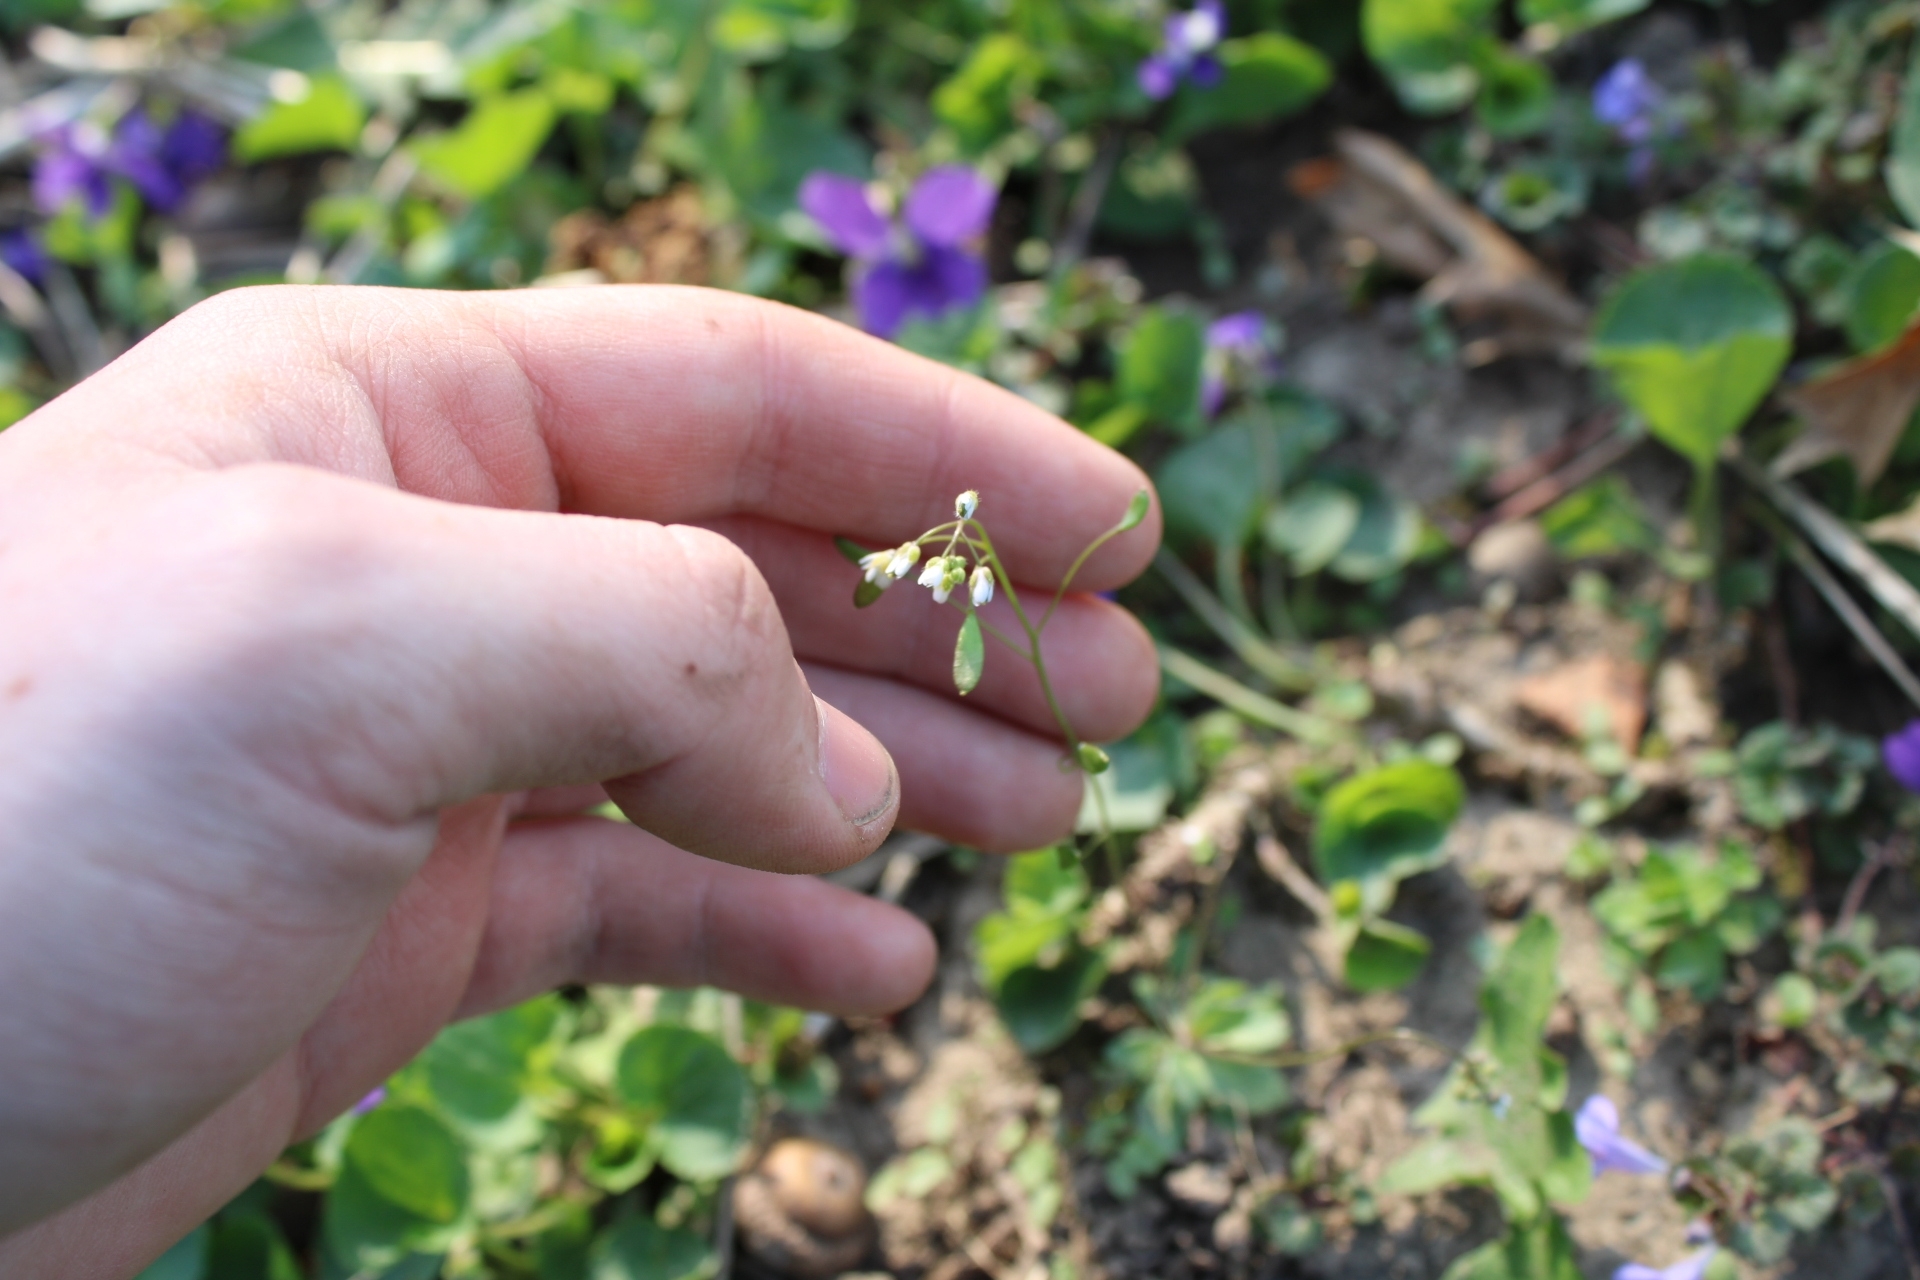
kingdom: Plantae
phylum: Tracheophyta
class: Magnoliopsida
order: Brassicales
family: Brassicaceae
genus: Draba
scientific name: Draba verna
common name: Spring draba
